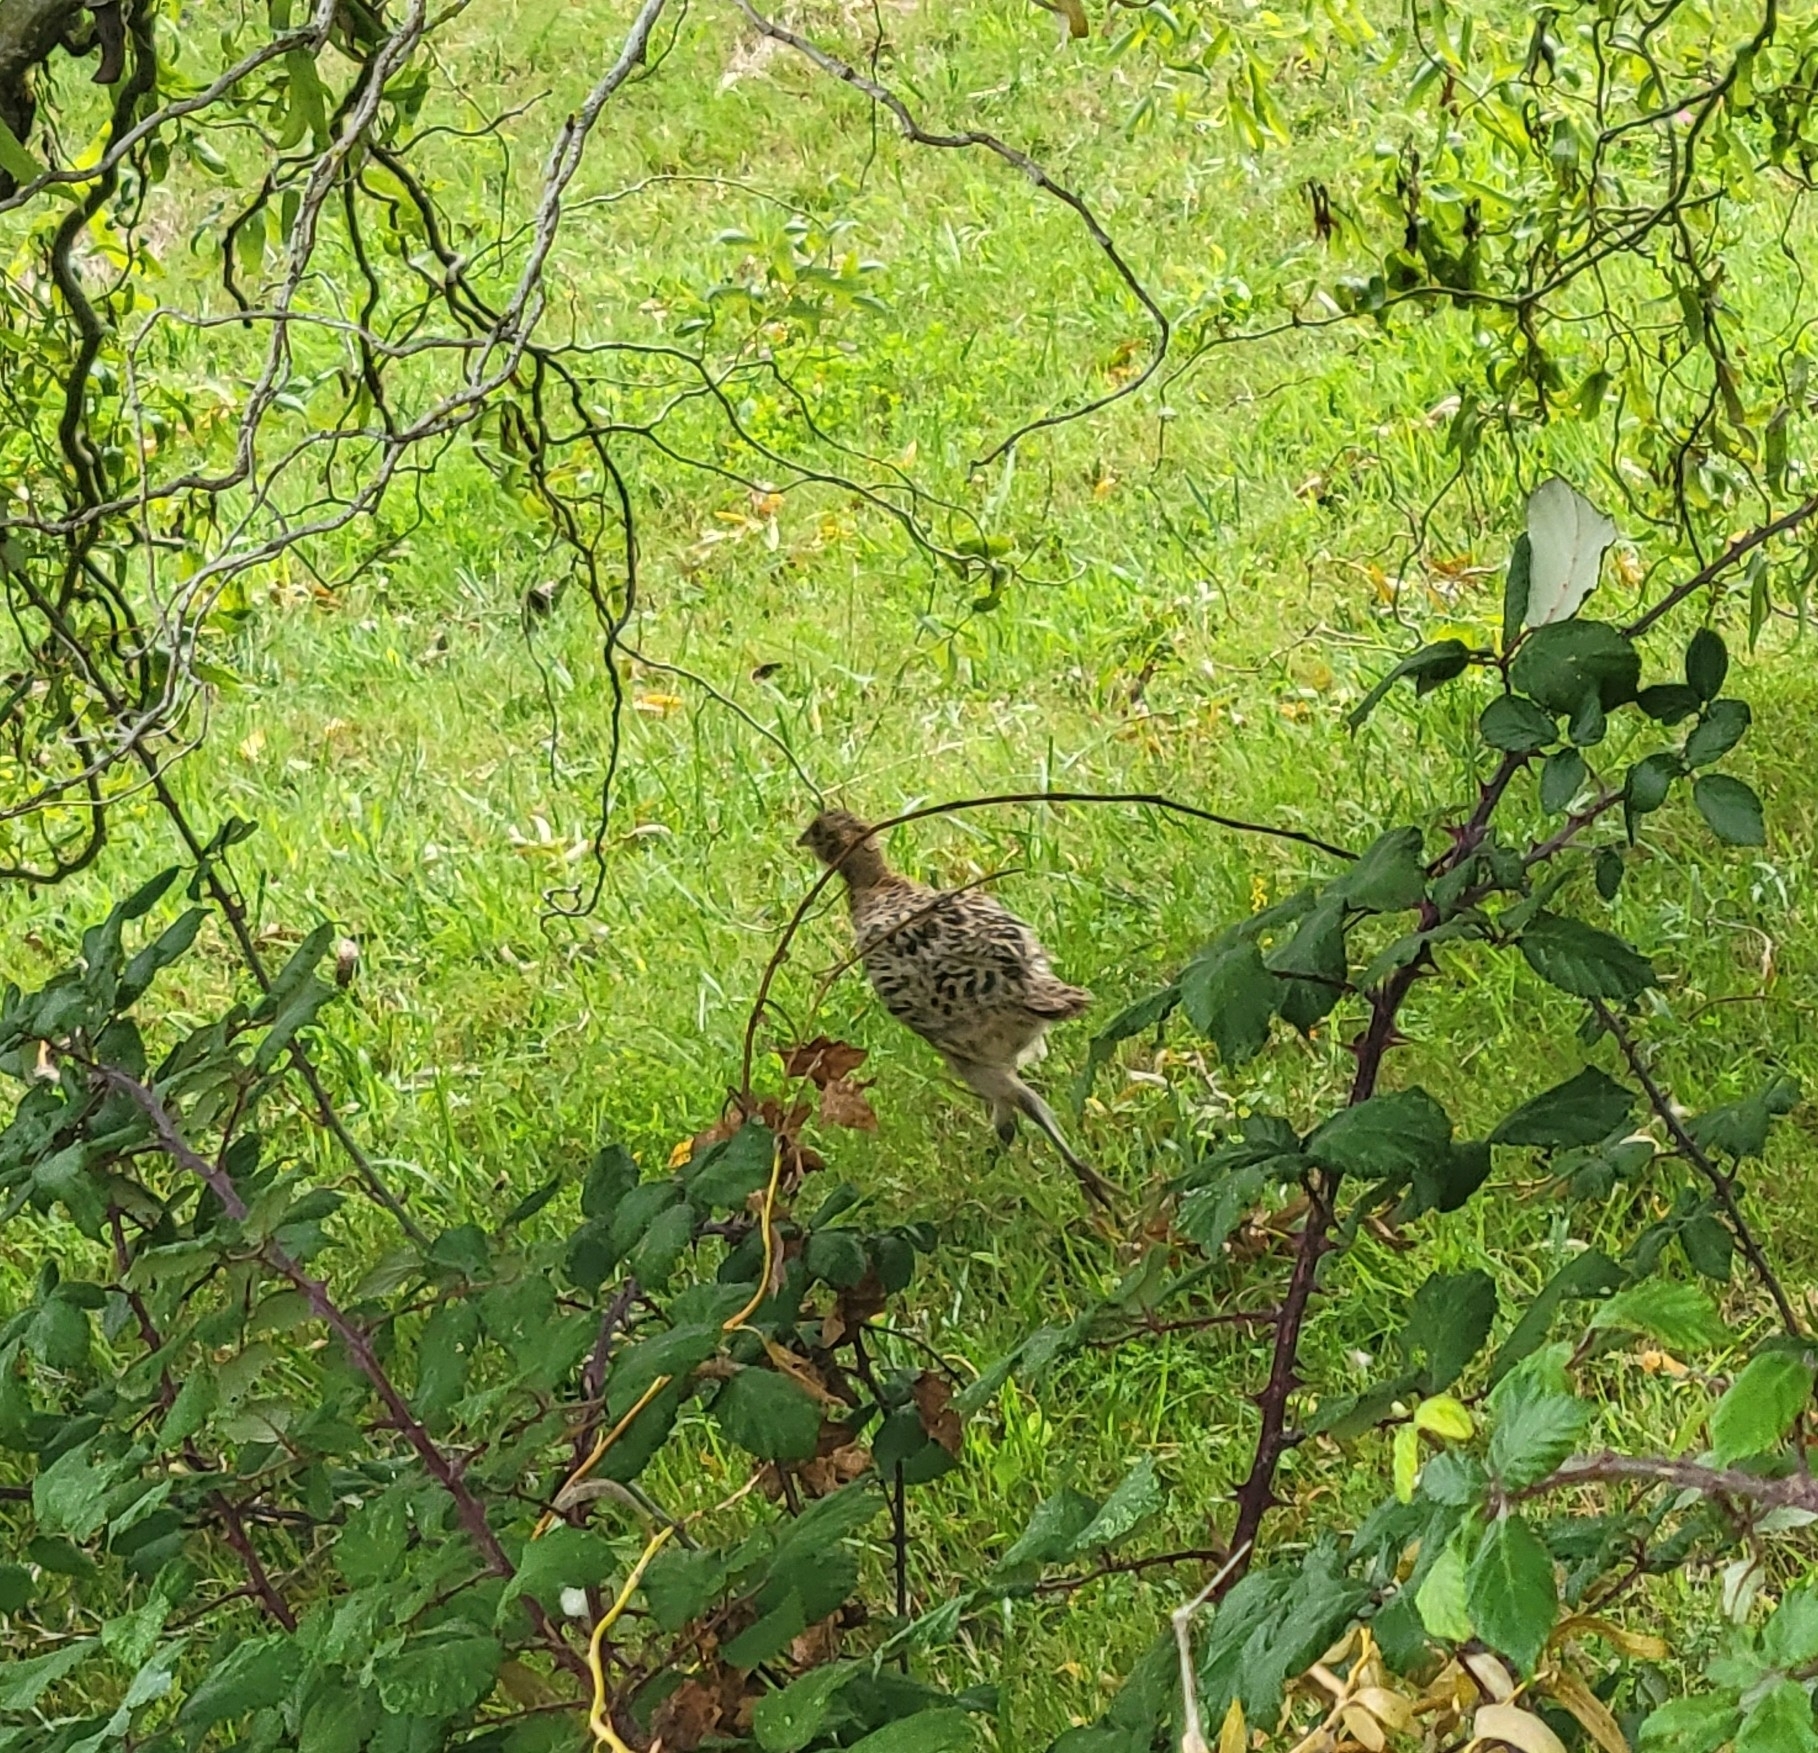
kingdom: Animalia
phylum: Chordata
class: Aves
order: Galliformes
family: Phasianidae
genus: Phasianus
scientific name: Phasianus colchicus
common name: Common pheasant
